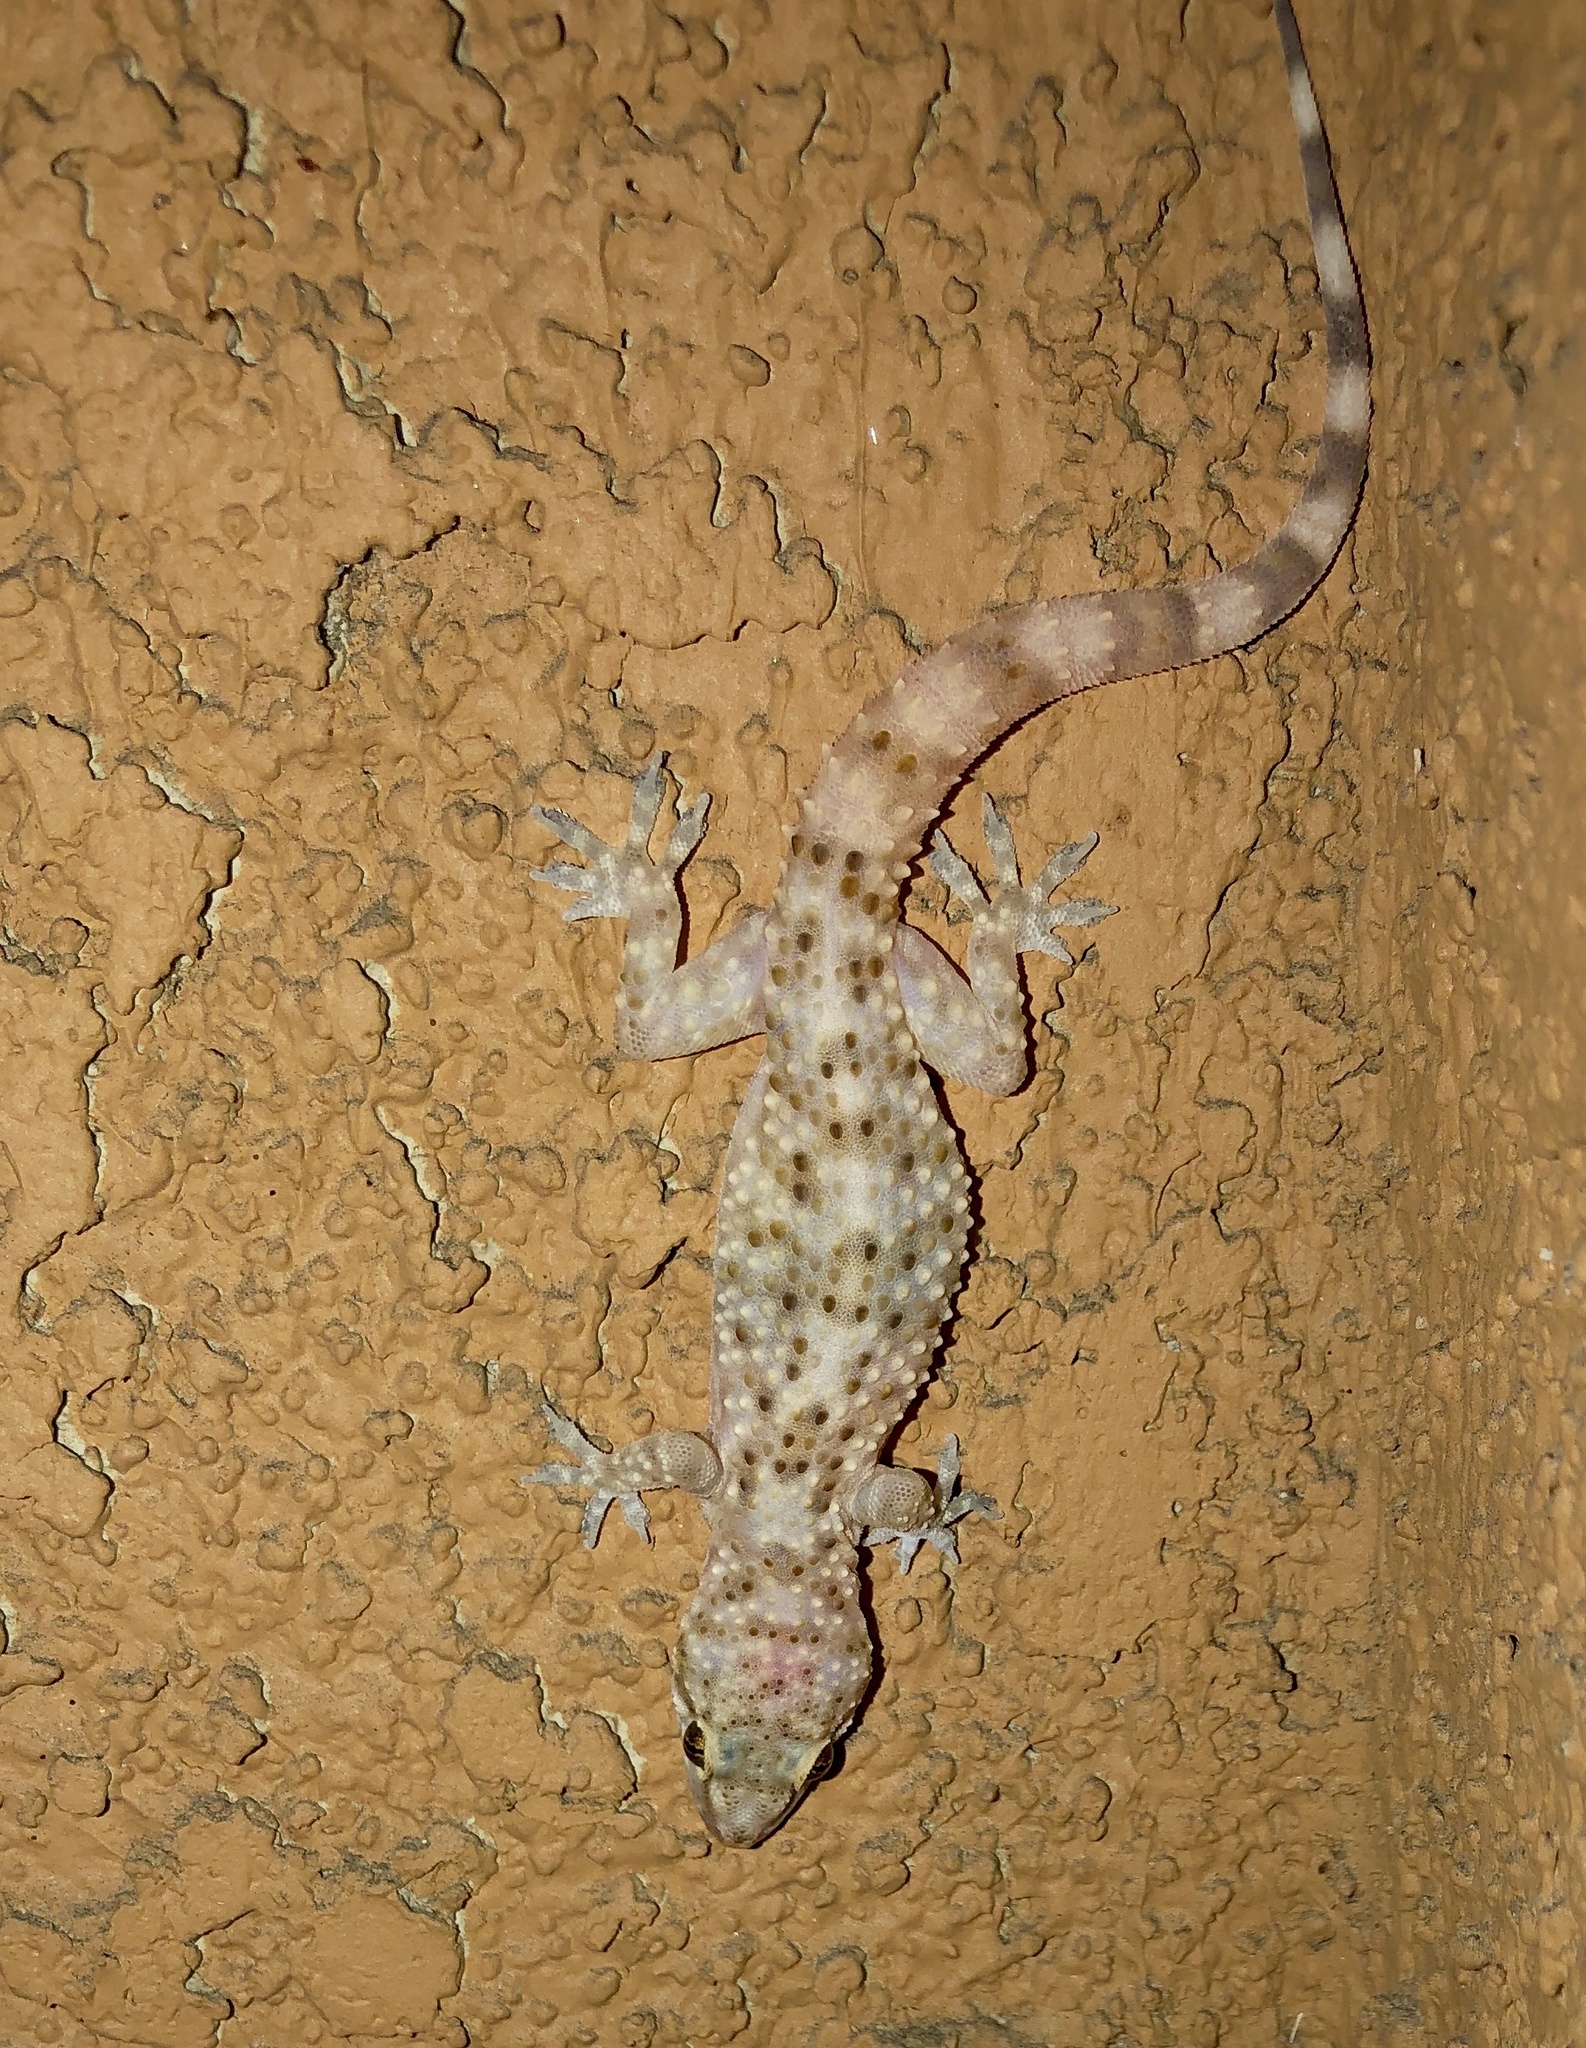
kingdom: Animalia
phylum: Chordata
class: Squamata
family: Gekkonidae
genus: Hemidactylus
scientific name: Hemidactylus turcicus
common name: Turkish gecko
